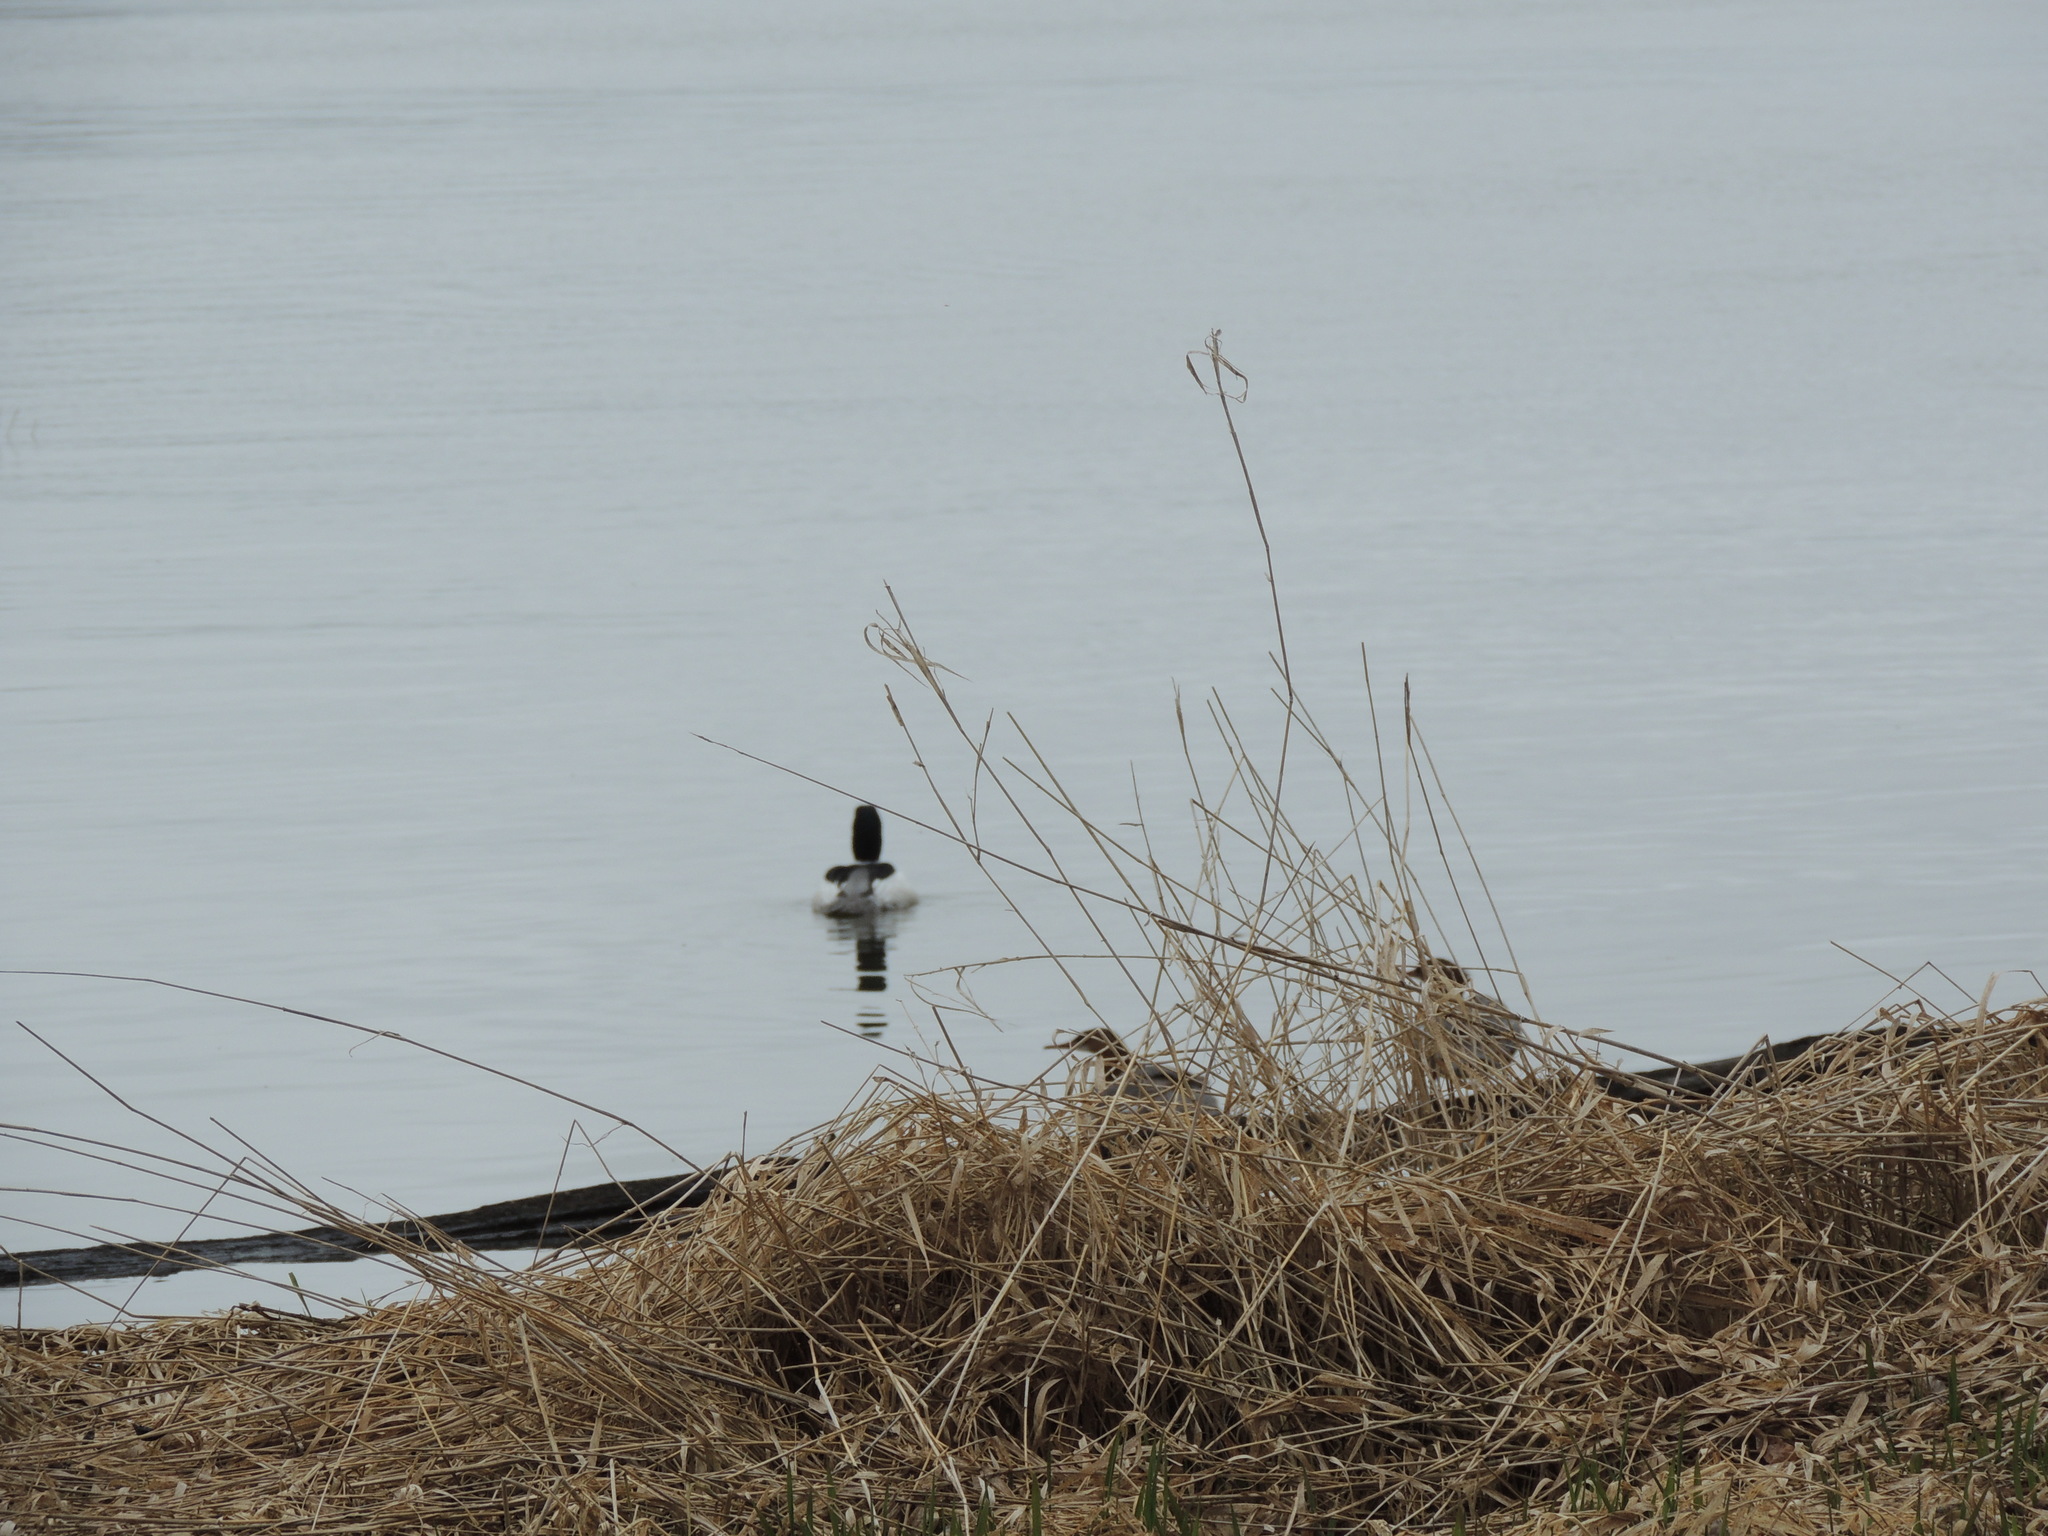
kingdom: Animalia
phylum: Chordata
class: Aves
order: Anseriformes
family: Anatidae
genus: Mergus
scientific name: Mergus merganser
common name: Common merganser
